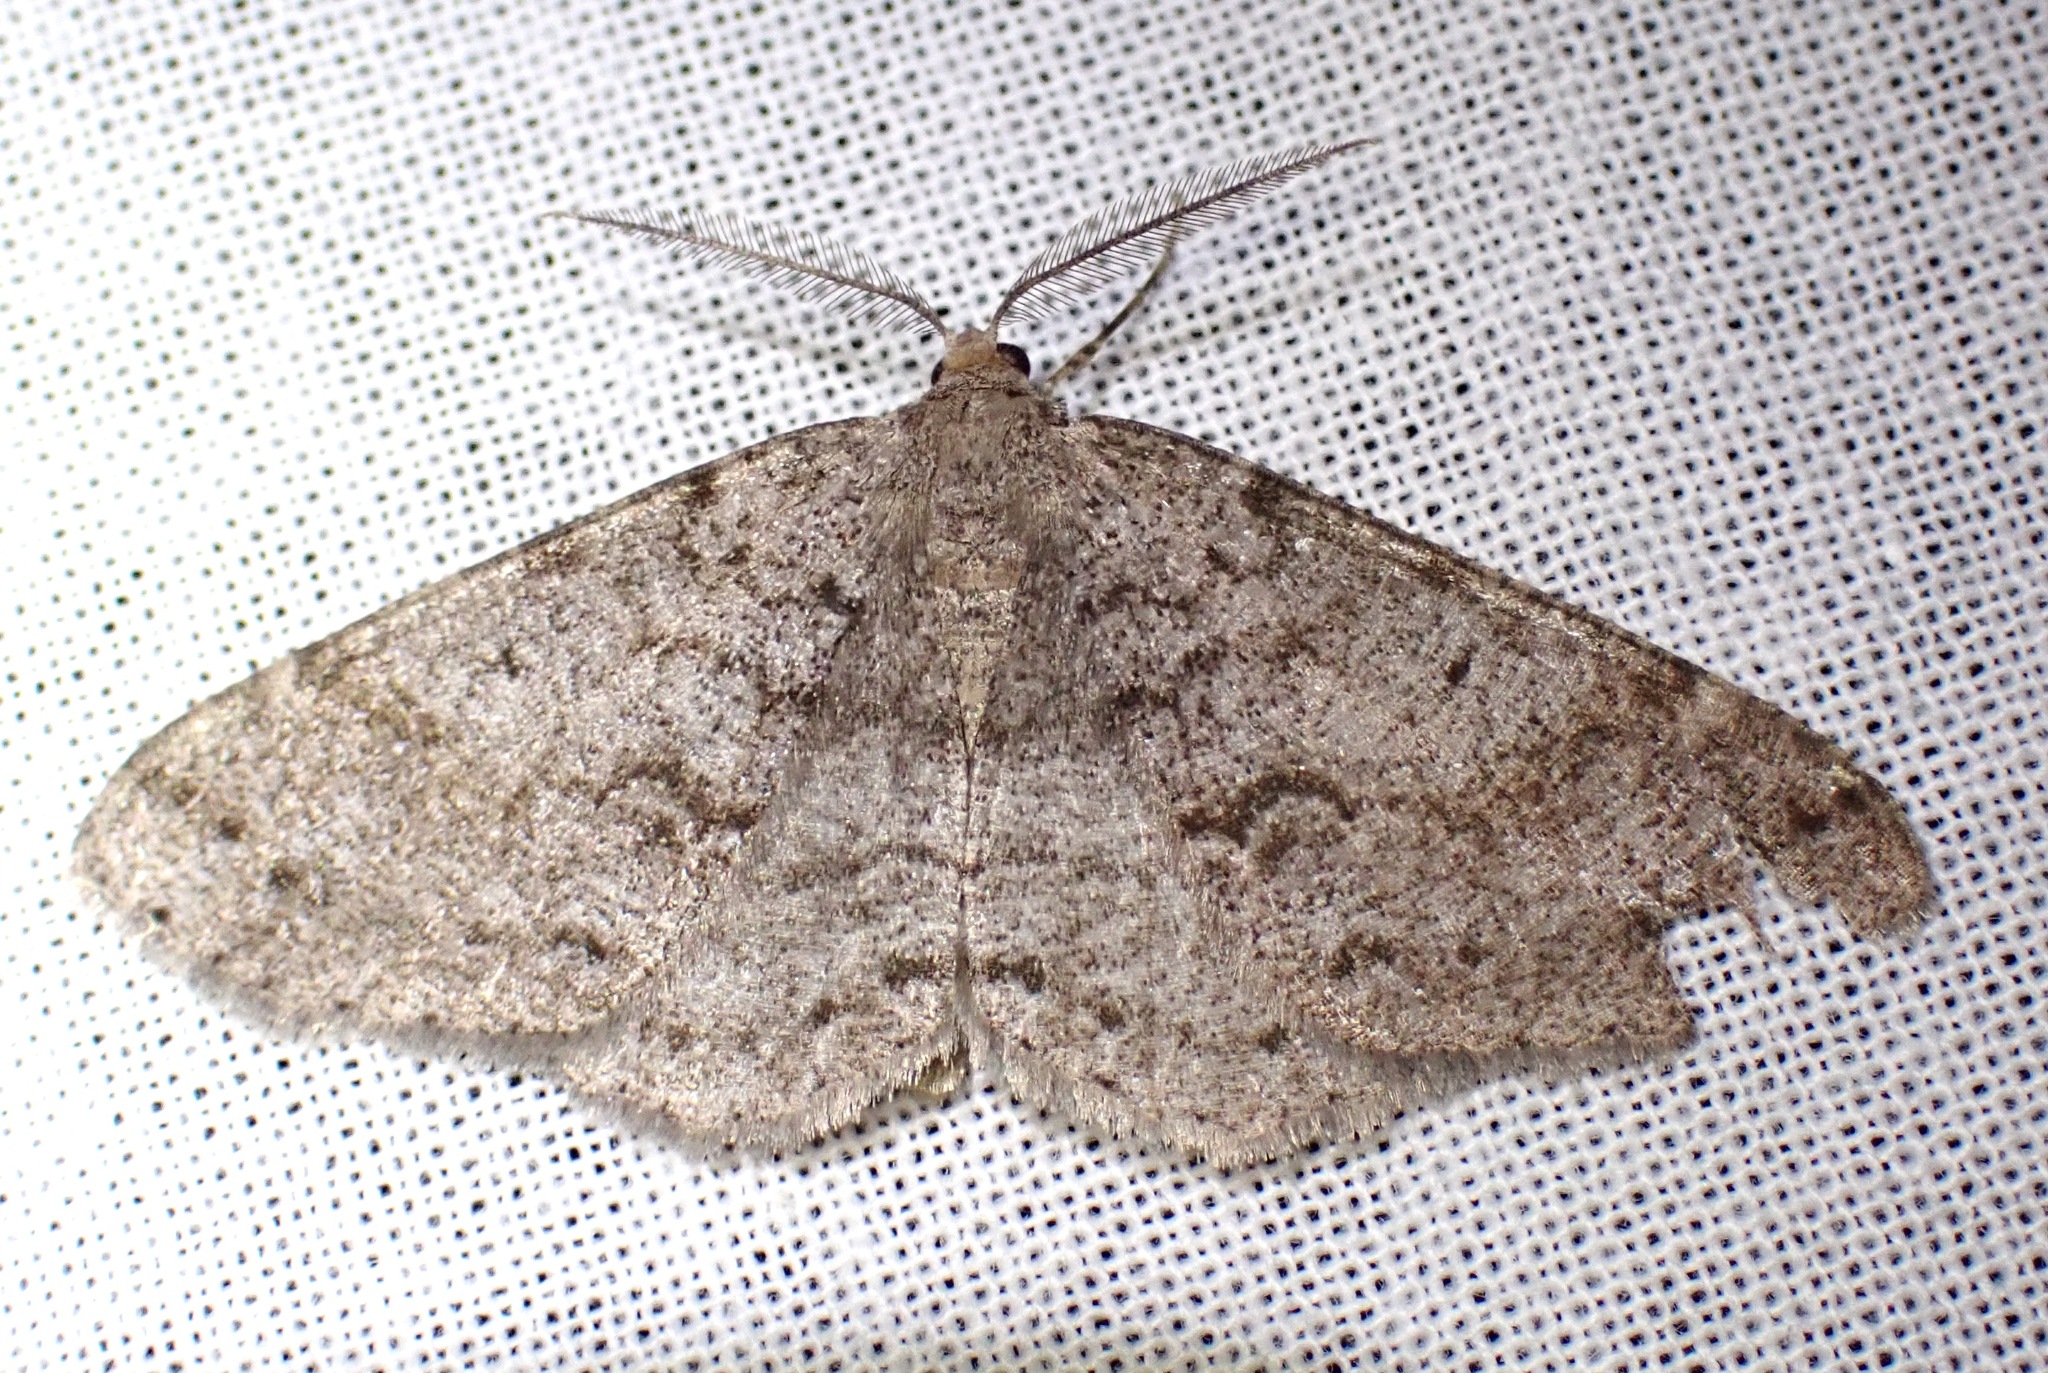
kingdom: Animalia
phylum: Arthropoda
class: Insecta
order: Lepidoptera
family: Geometridae
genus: Melanolophia
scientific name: Melanolophia imitata
